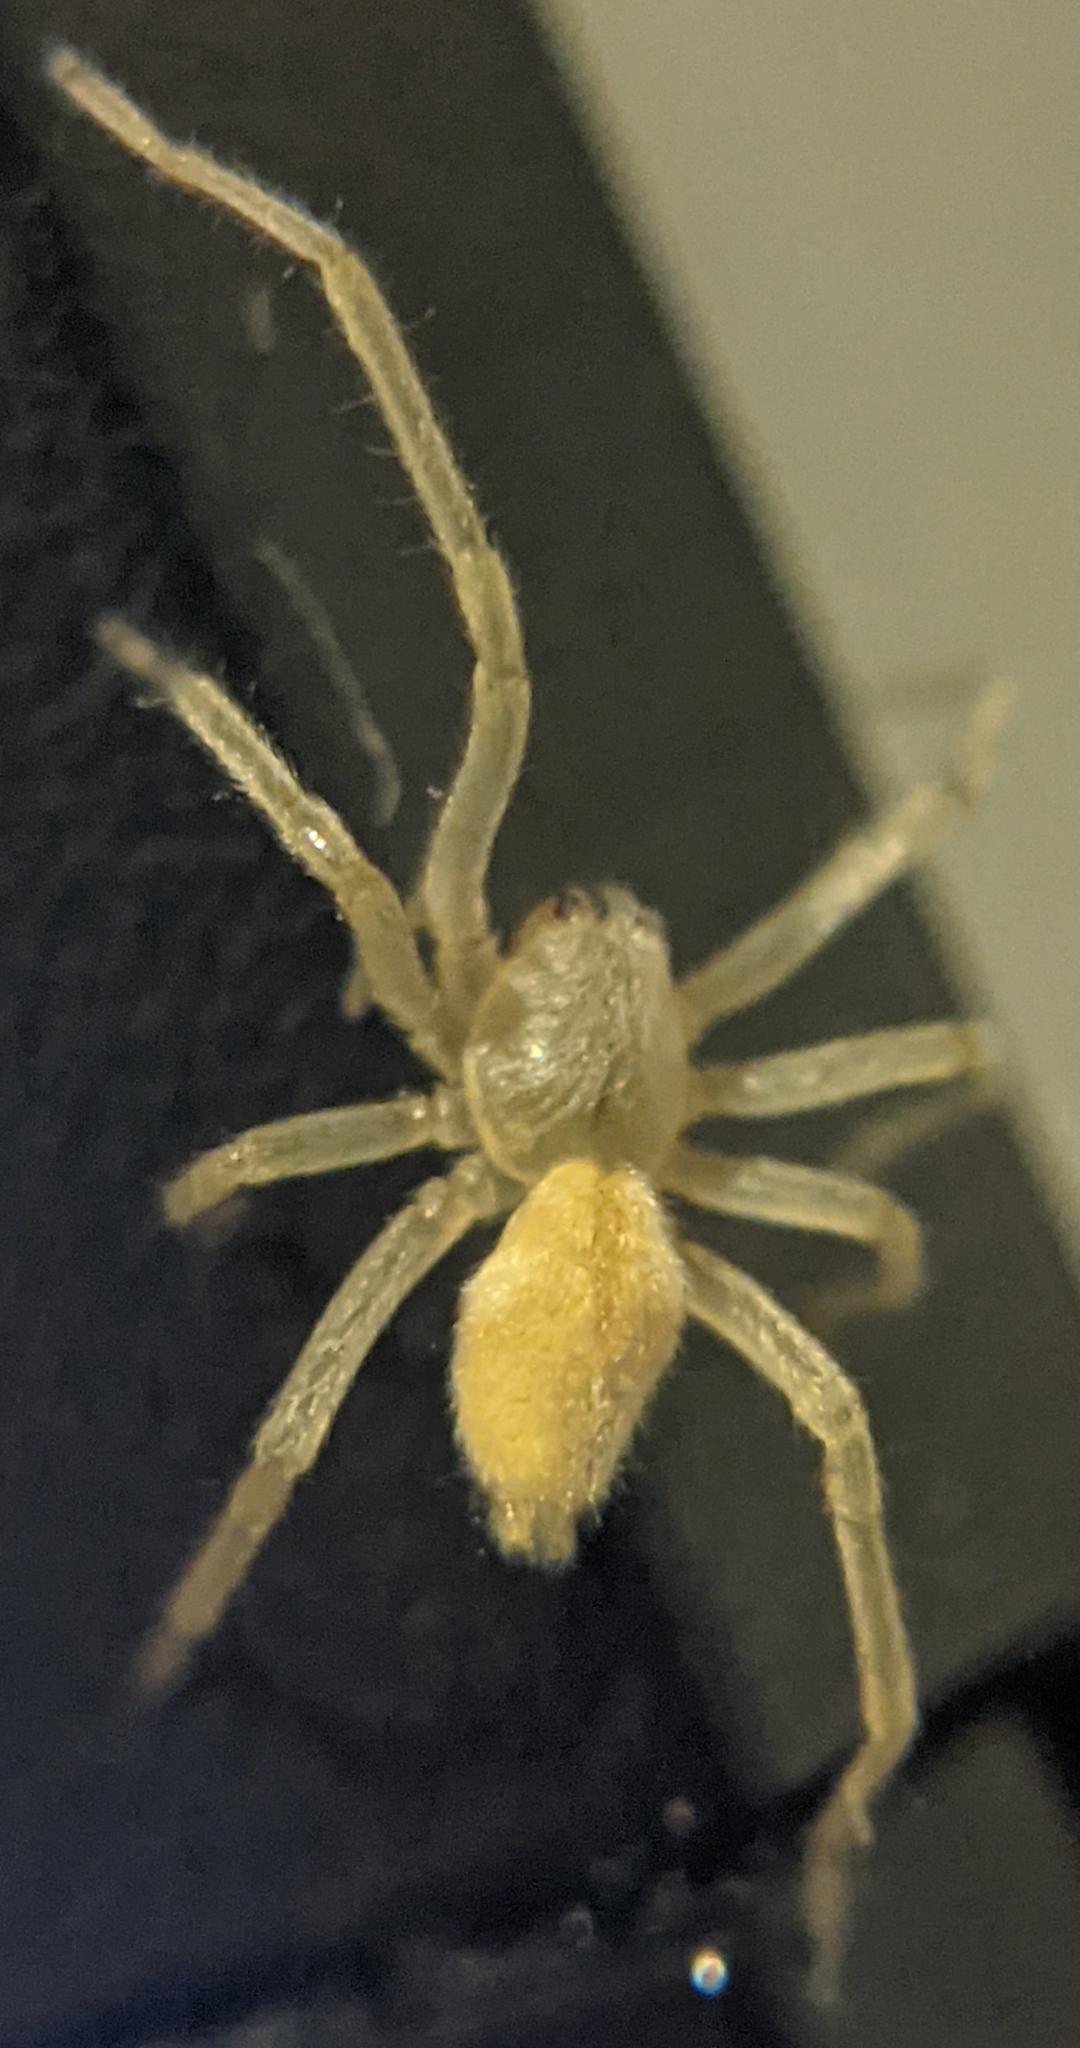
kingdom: Animalia
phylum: Arthropoda
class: Arachnida
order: Araneae
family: Cheiracanthiidae
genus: Cheiracanthium
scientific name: Cheiracanthium mildei
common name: Northern yellow sac spider
